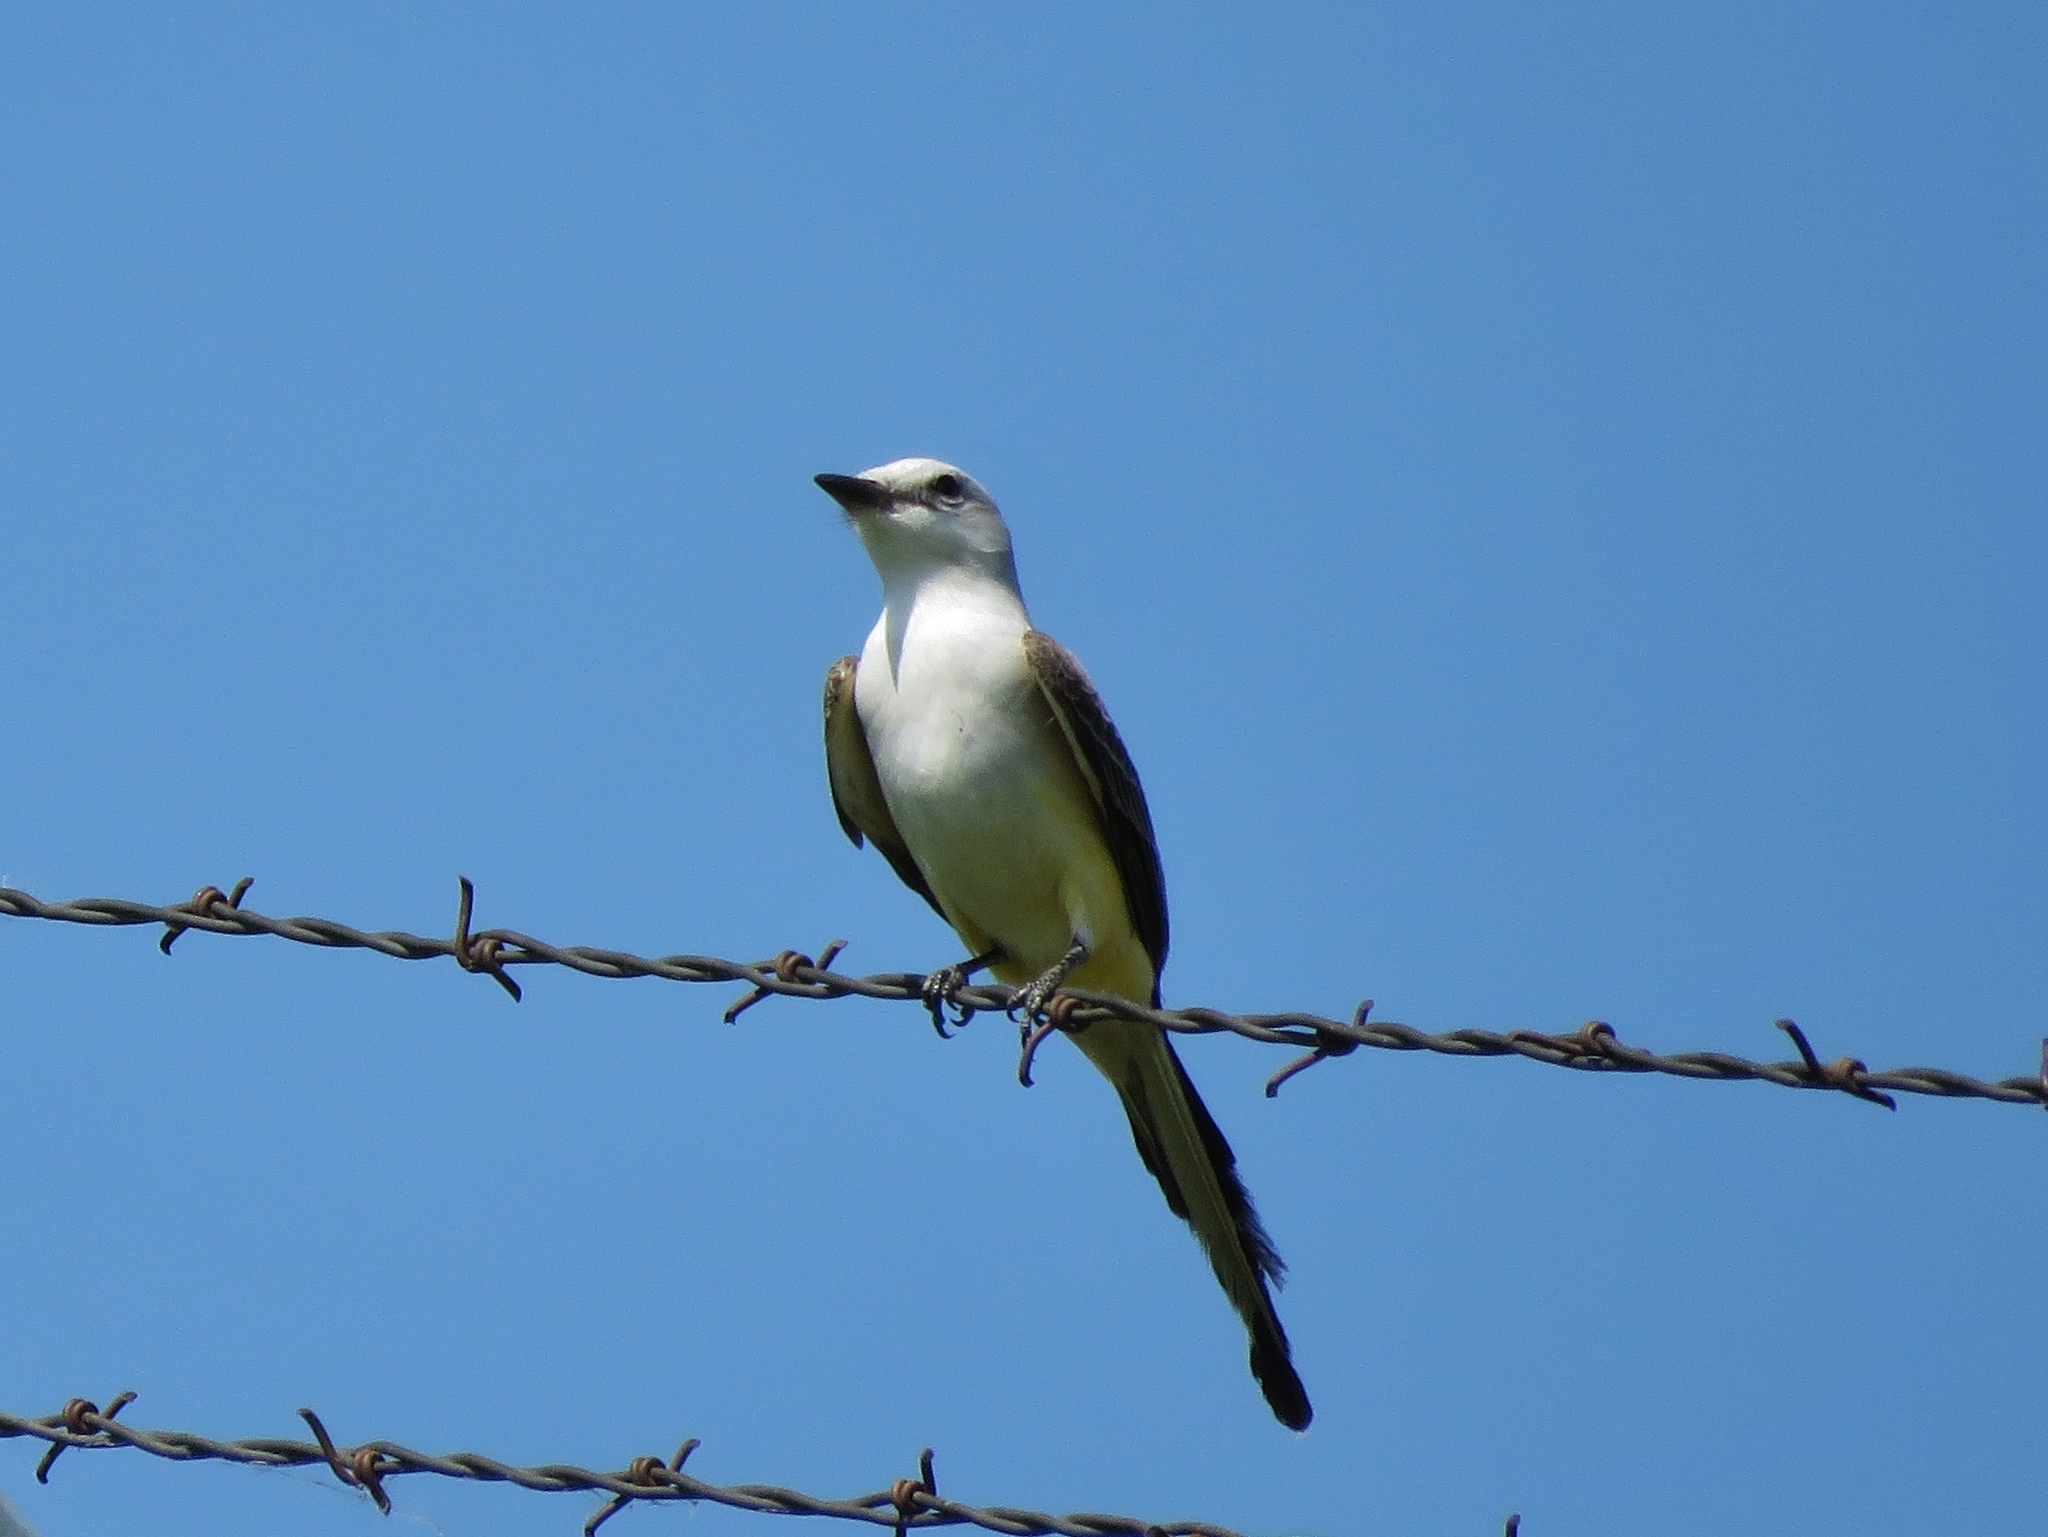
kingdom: Animalia
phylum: Chordata
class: Aves
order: Passeriformes
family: Tyrannidae
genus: Tyrannus
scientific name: Tyrannus forficatus
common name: Scissor-tailed flycatcher
